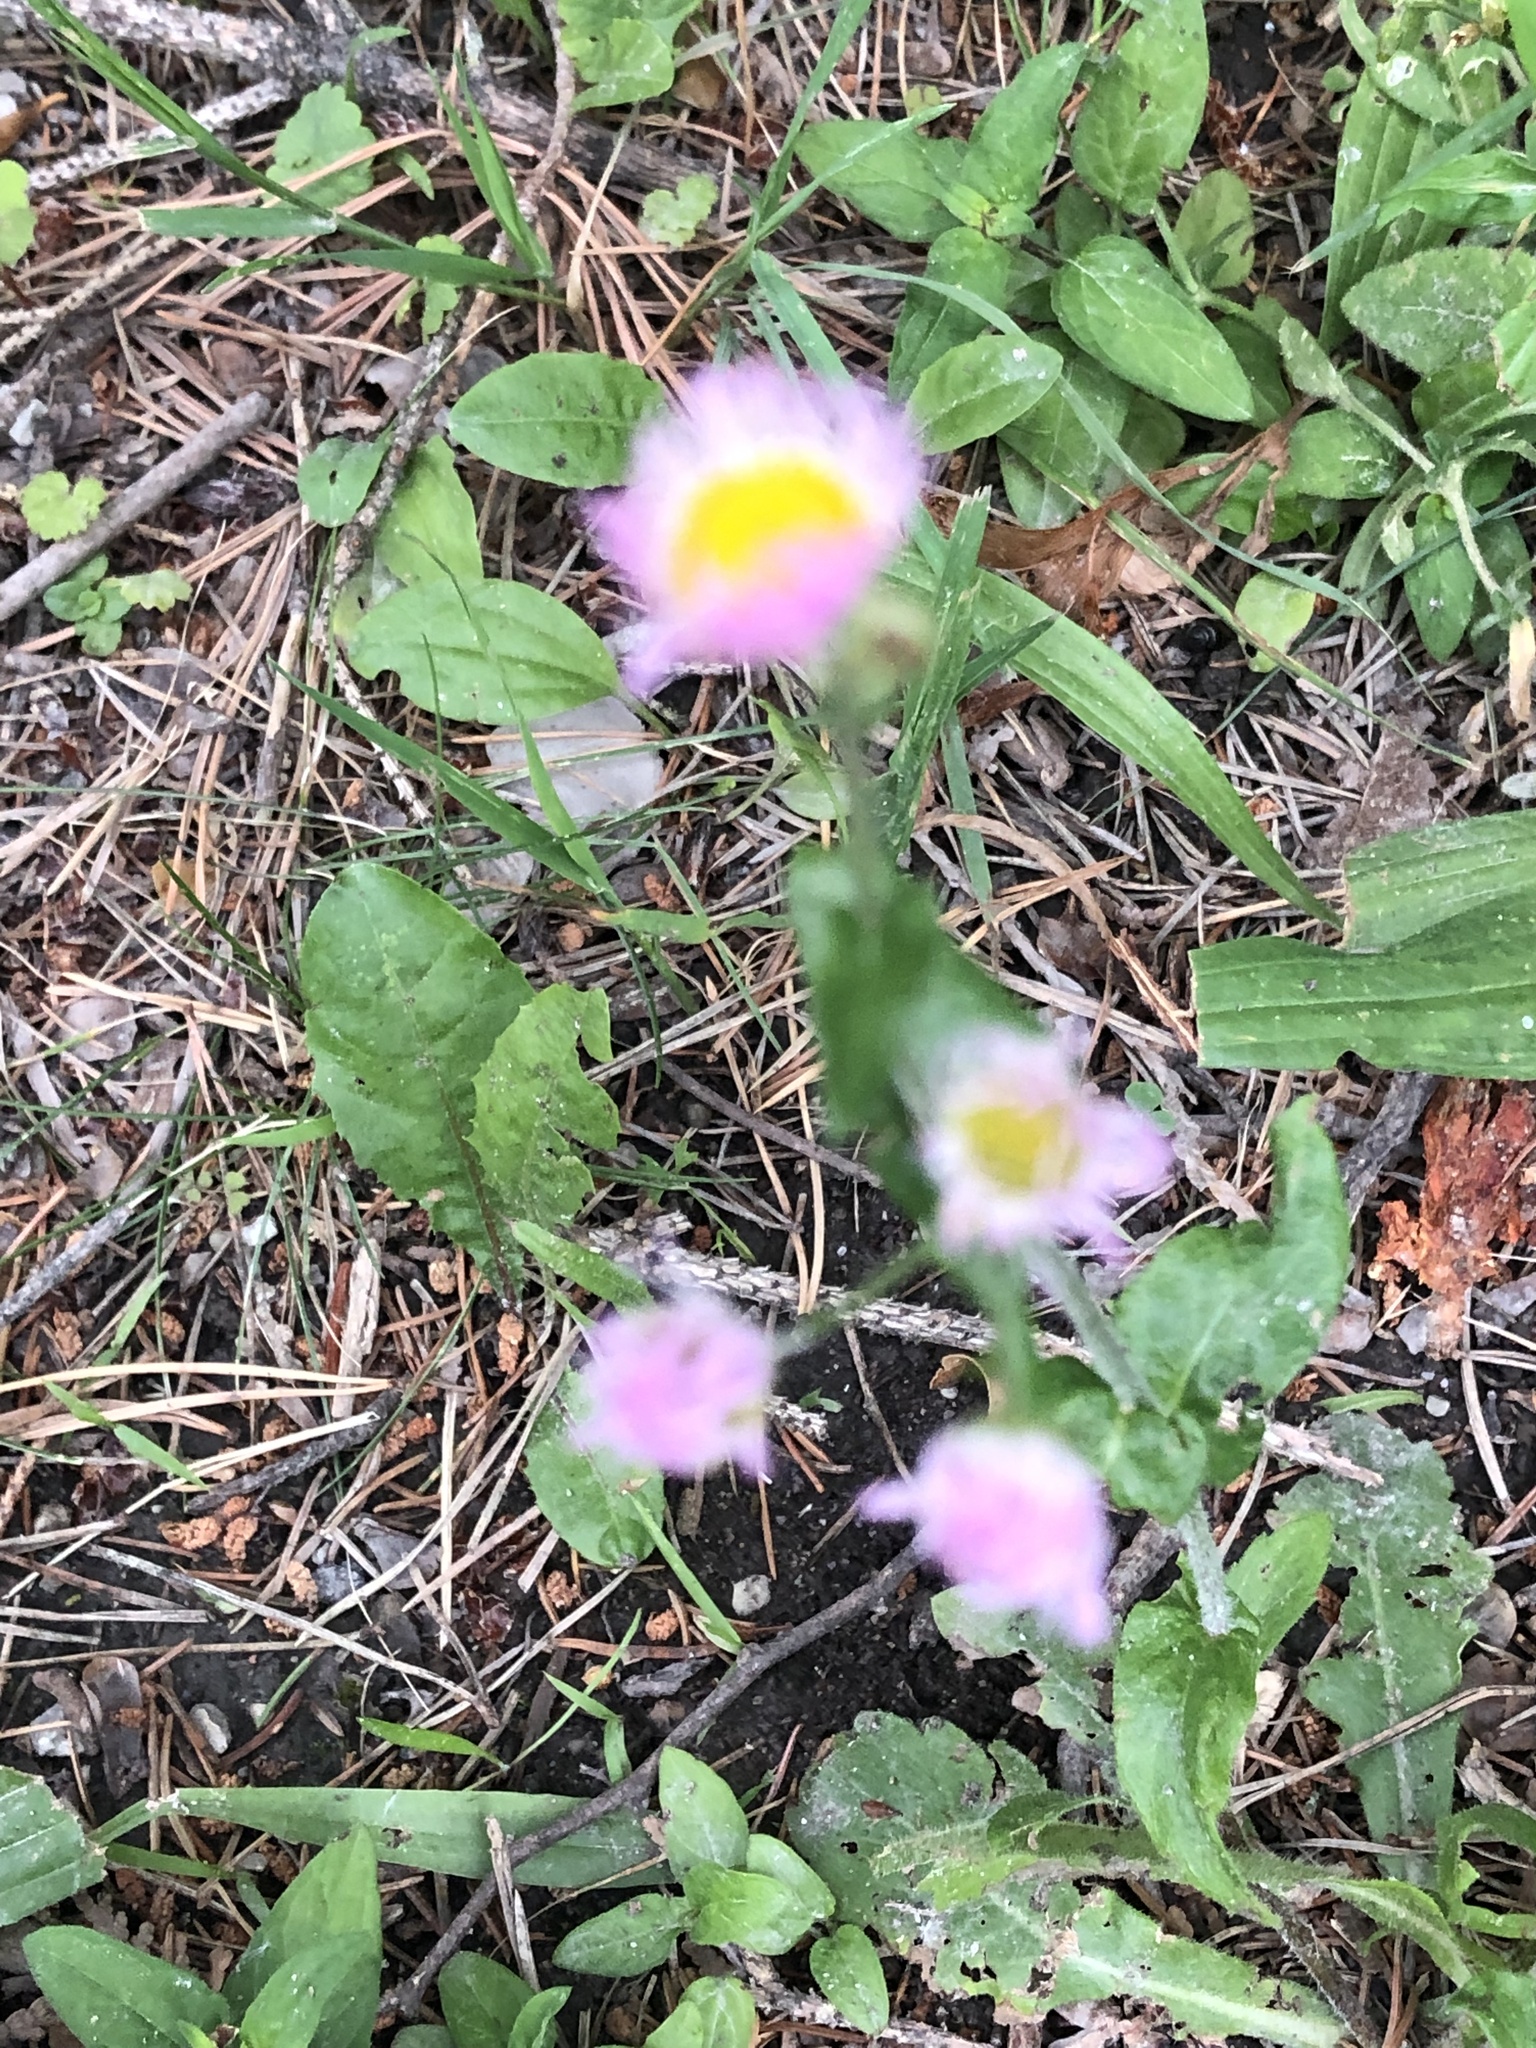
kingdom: Plantae
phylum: Tracheophyta
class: Magnoliopsida
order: Asterales
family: Asteraceae
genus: Erigeron
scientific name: Erigeron philadelphicus
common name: Robin's-plantain
